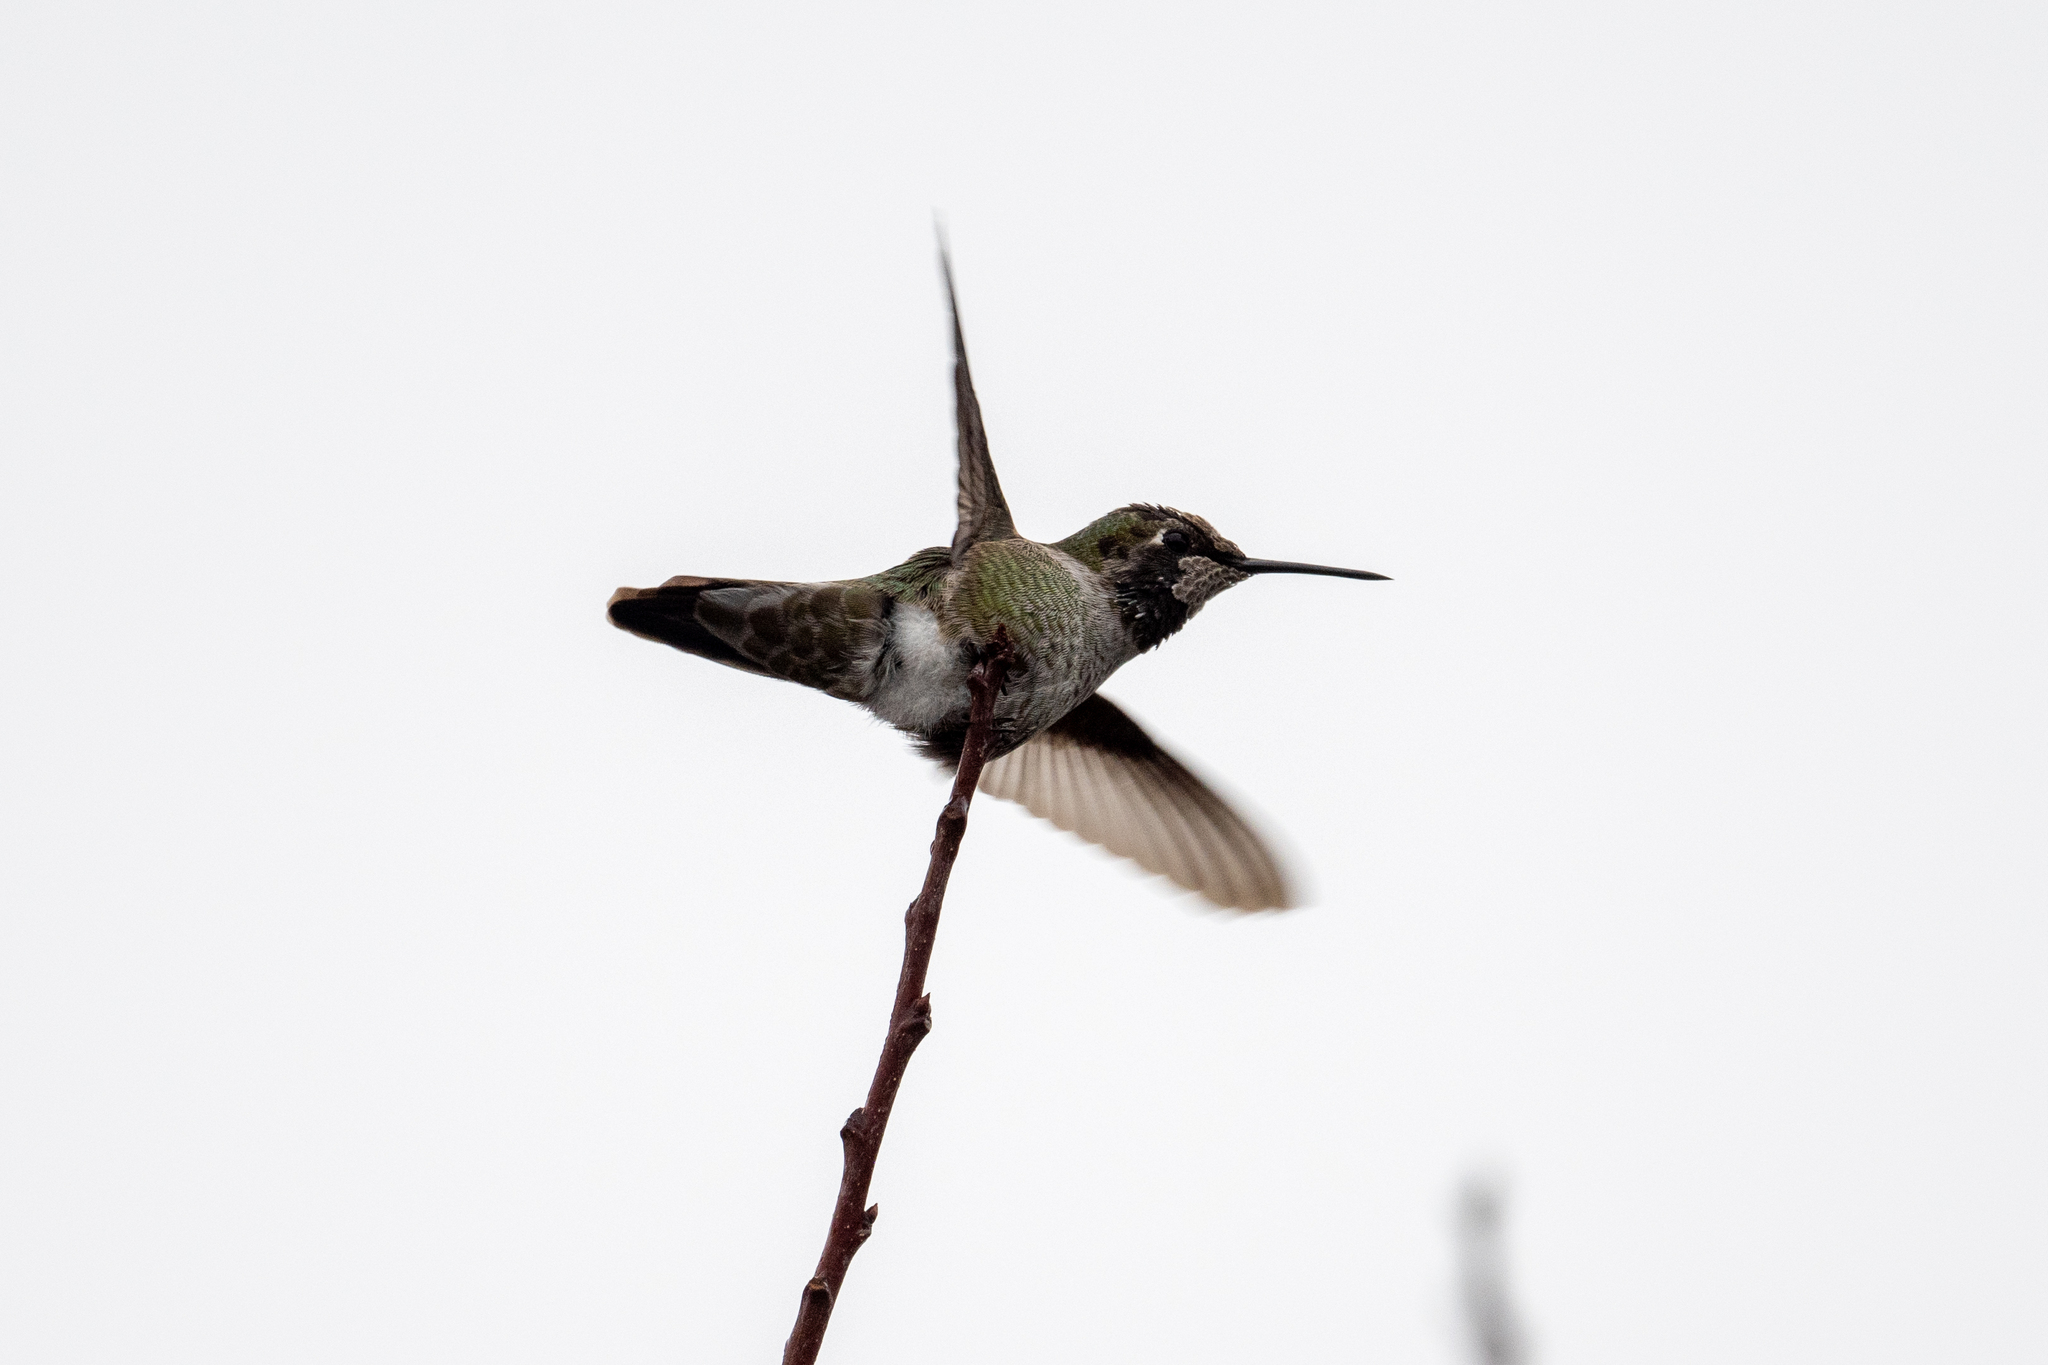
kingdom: Animalia
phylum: Chordata
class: Aves
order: Apodiformes
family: Trochilidae
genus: Calypte
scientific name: Calypte anna
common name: Anna's hummingbird
